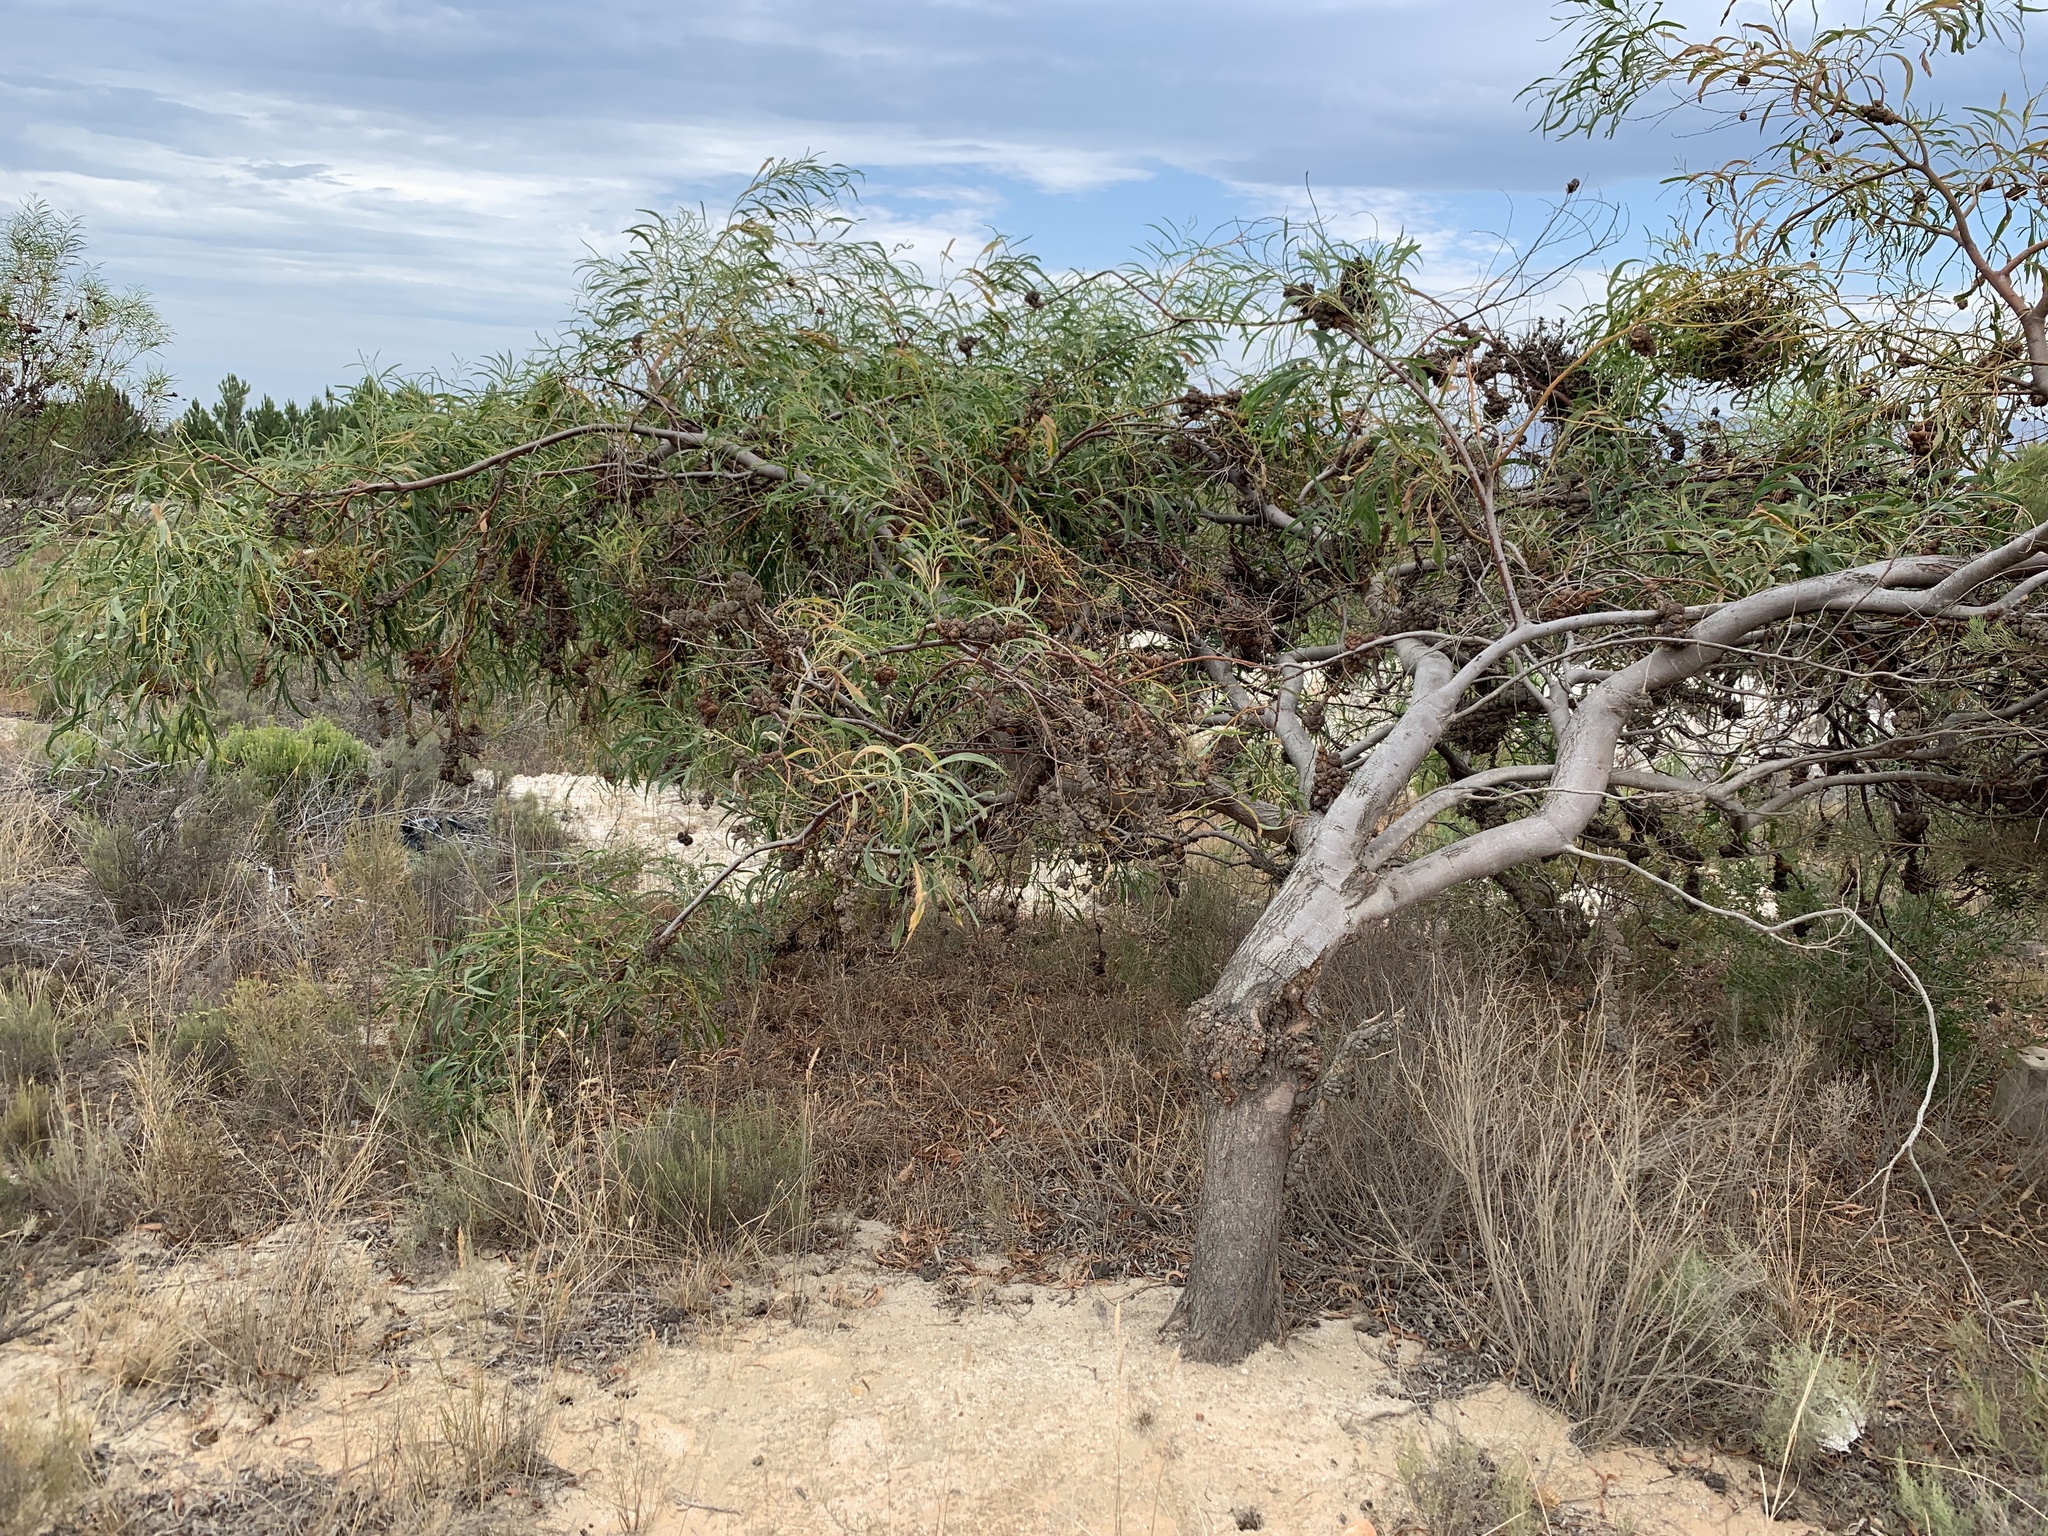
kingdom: Plantae
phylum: Tracheophyta
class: Magnoliopsida
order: Fabales
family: Fabaceae
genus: Acacia
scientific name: Acacia saligna
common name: Orange wattle
